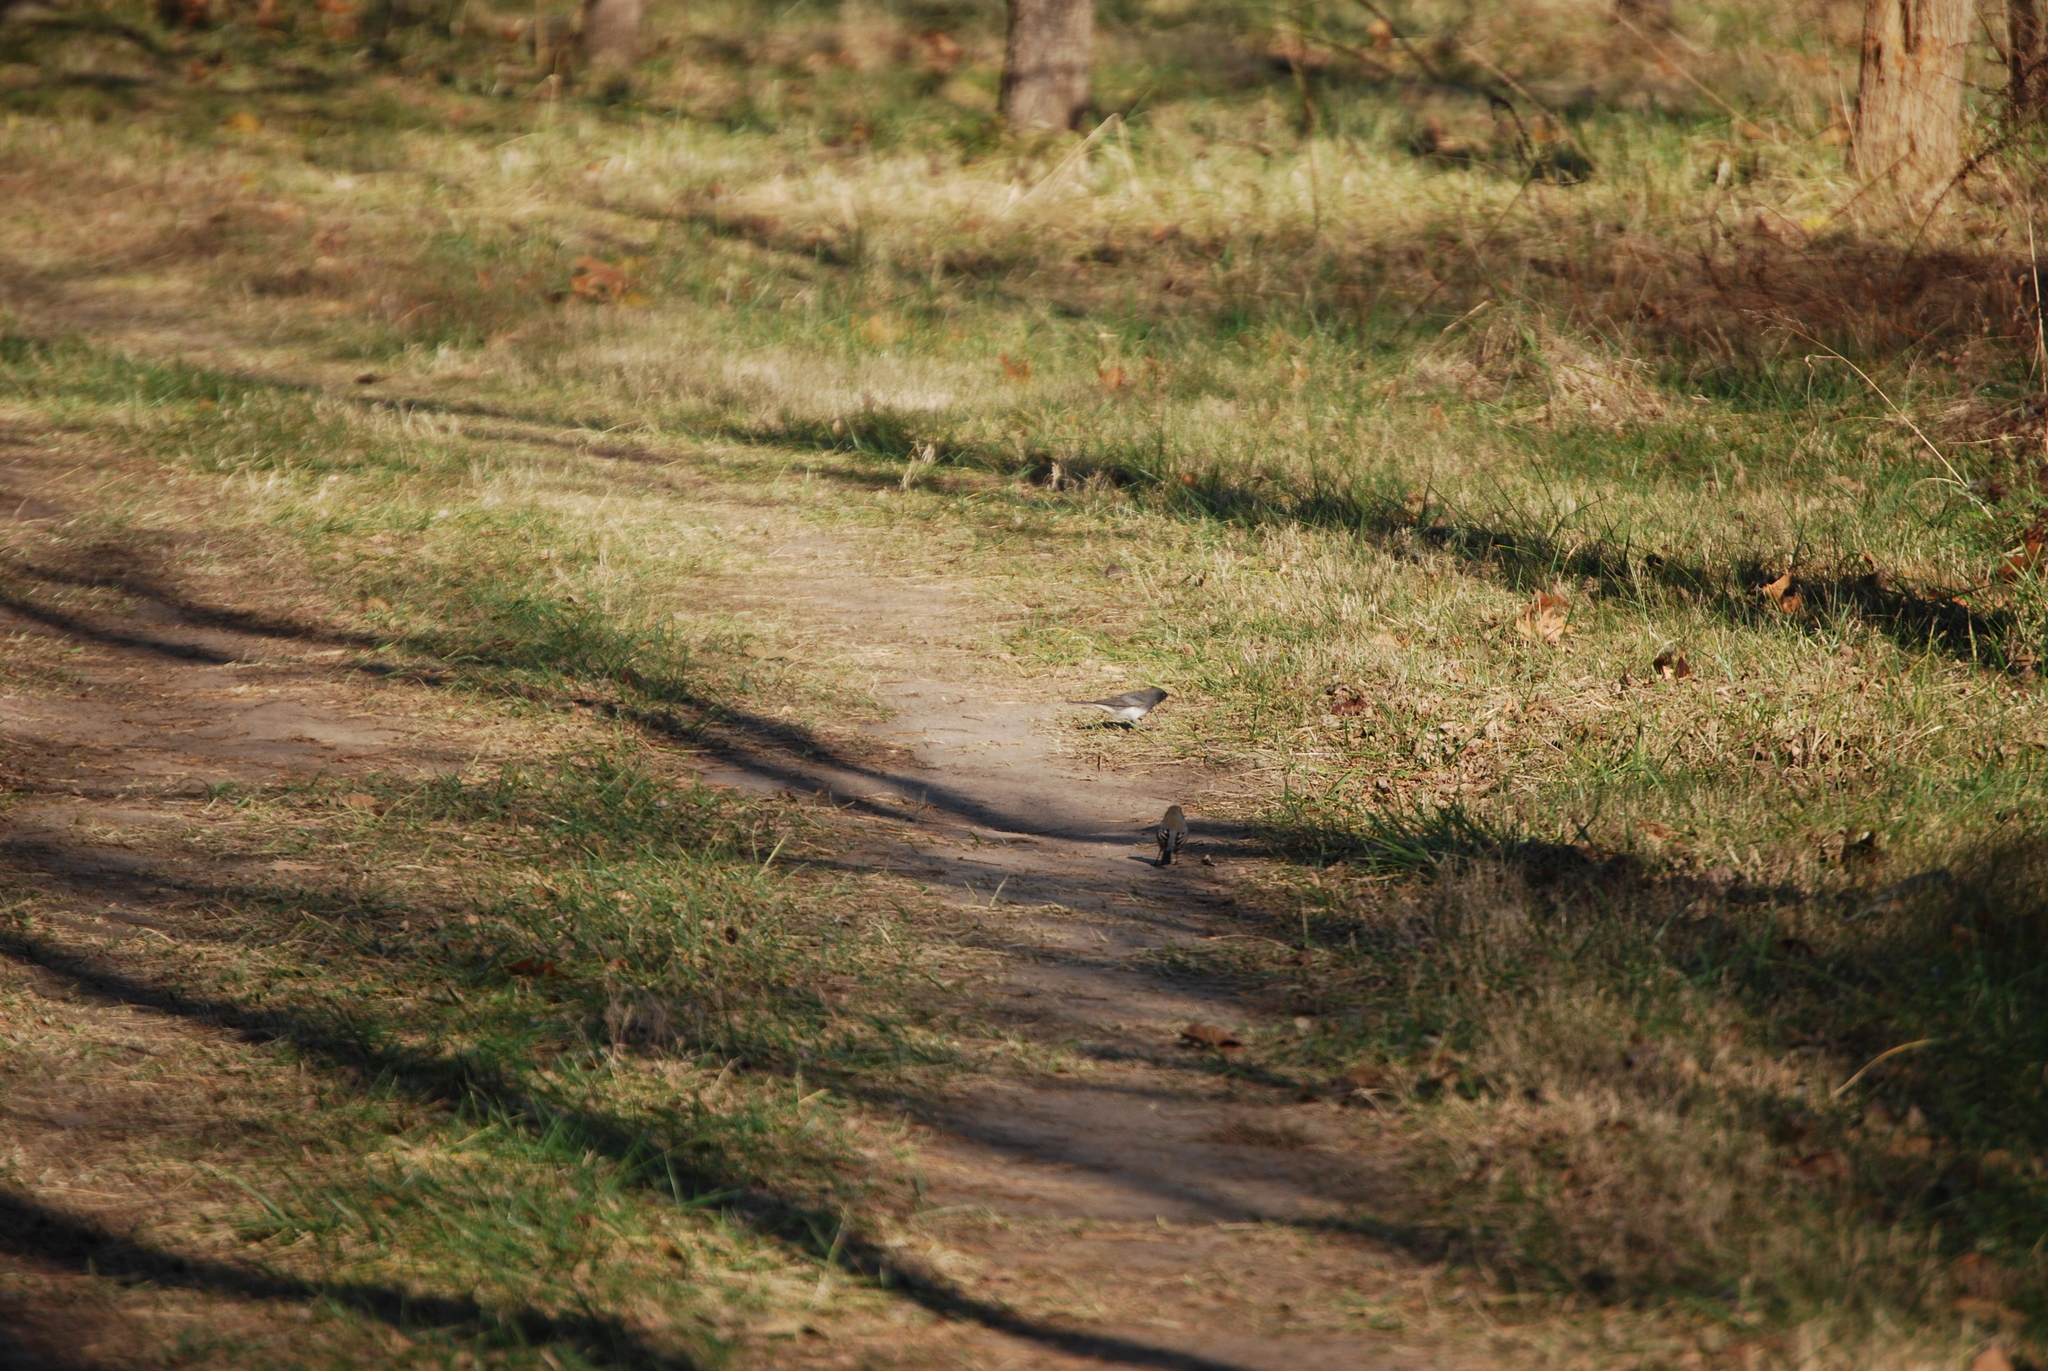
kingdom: Animalia
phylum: Chordata
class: Aves
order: Passeriformes
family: Passerellidae
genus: Junco
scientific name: Junco hyemalis
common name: Dark-eyed junco
